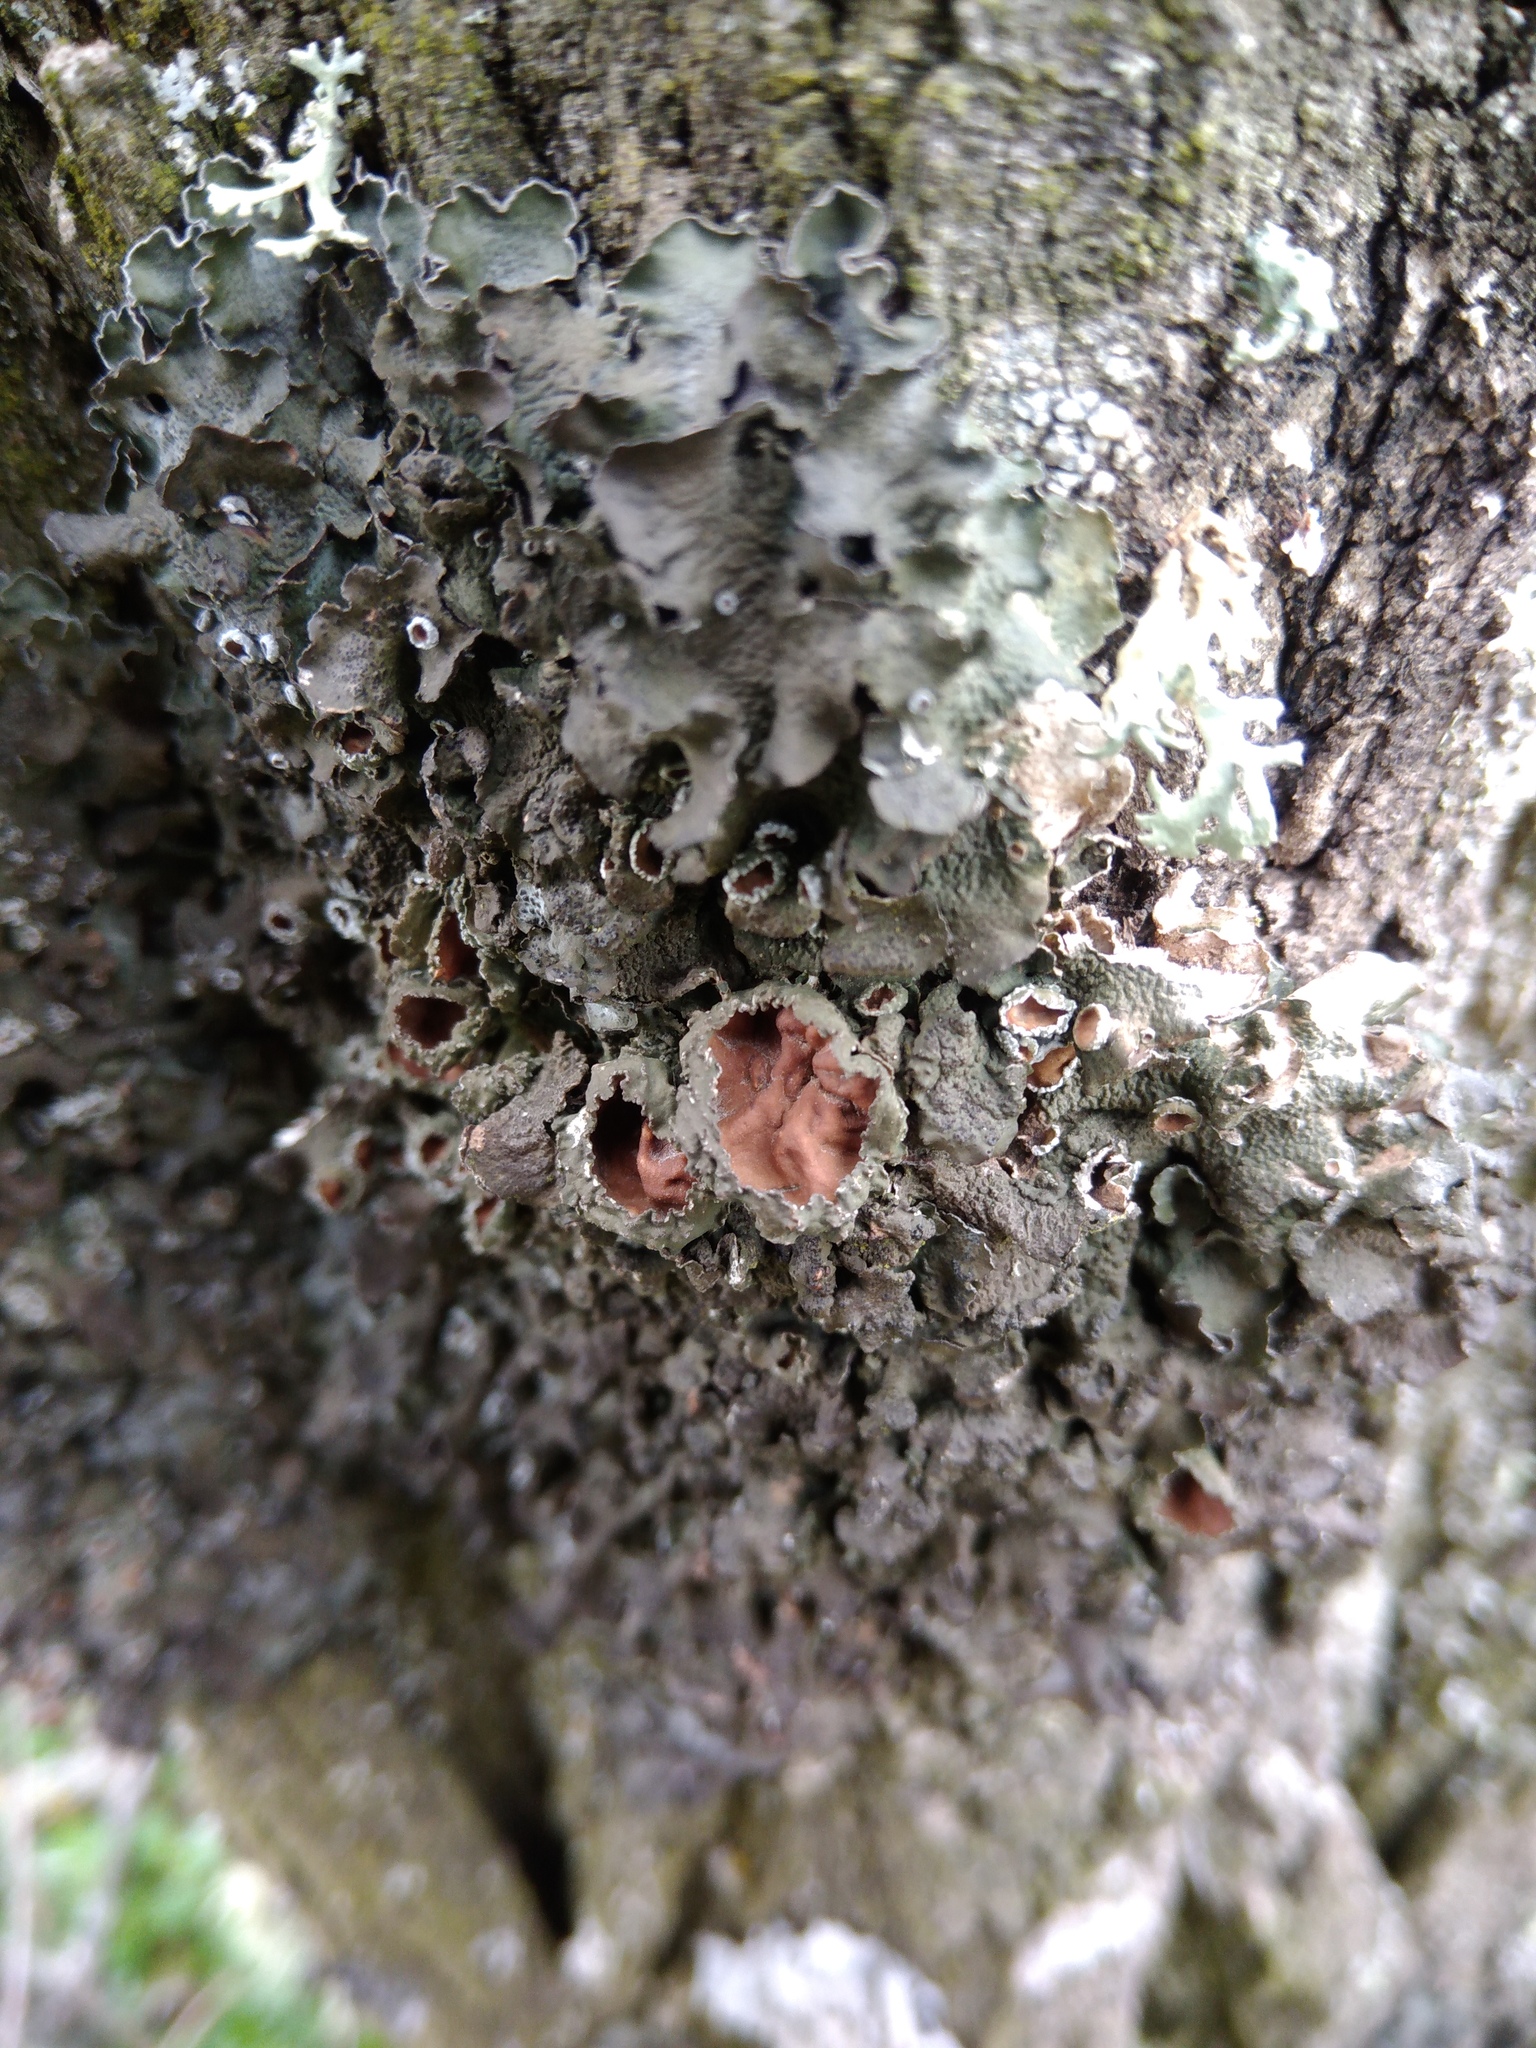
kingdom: Fungi
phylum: Ascomycota
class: Lecanoromycetes
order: Lecanorales
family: Parmeliaceae
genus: Pleurosticta
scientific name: Pleurosticta acetabulum
